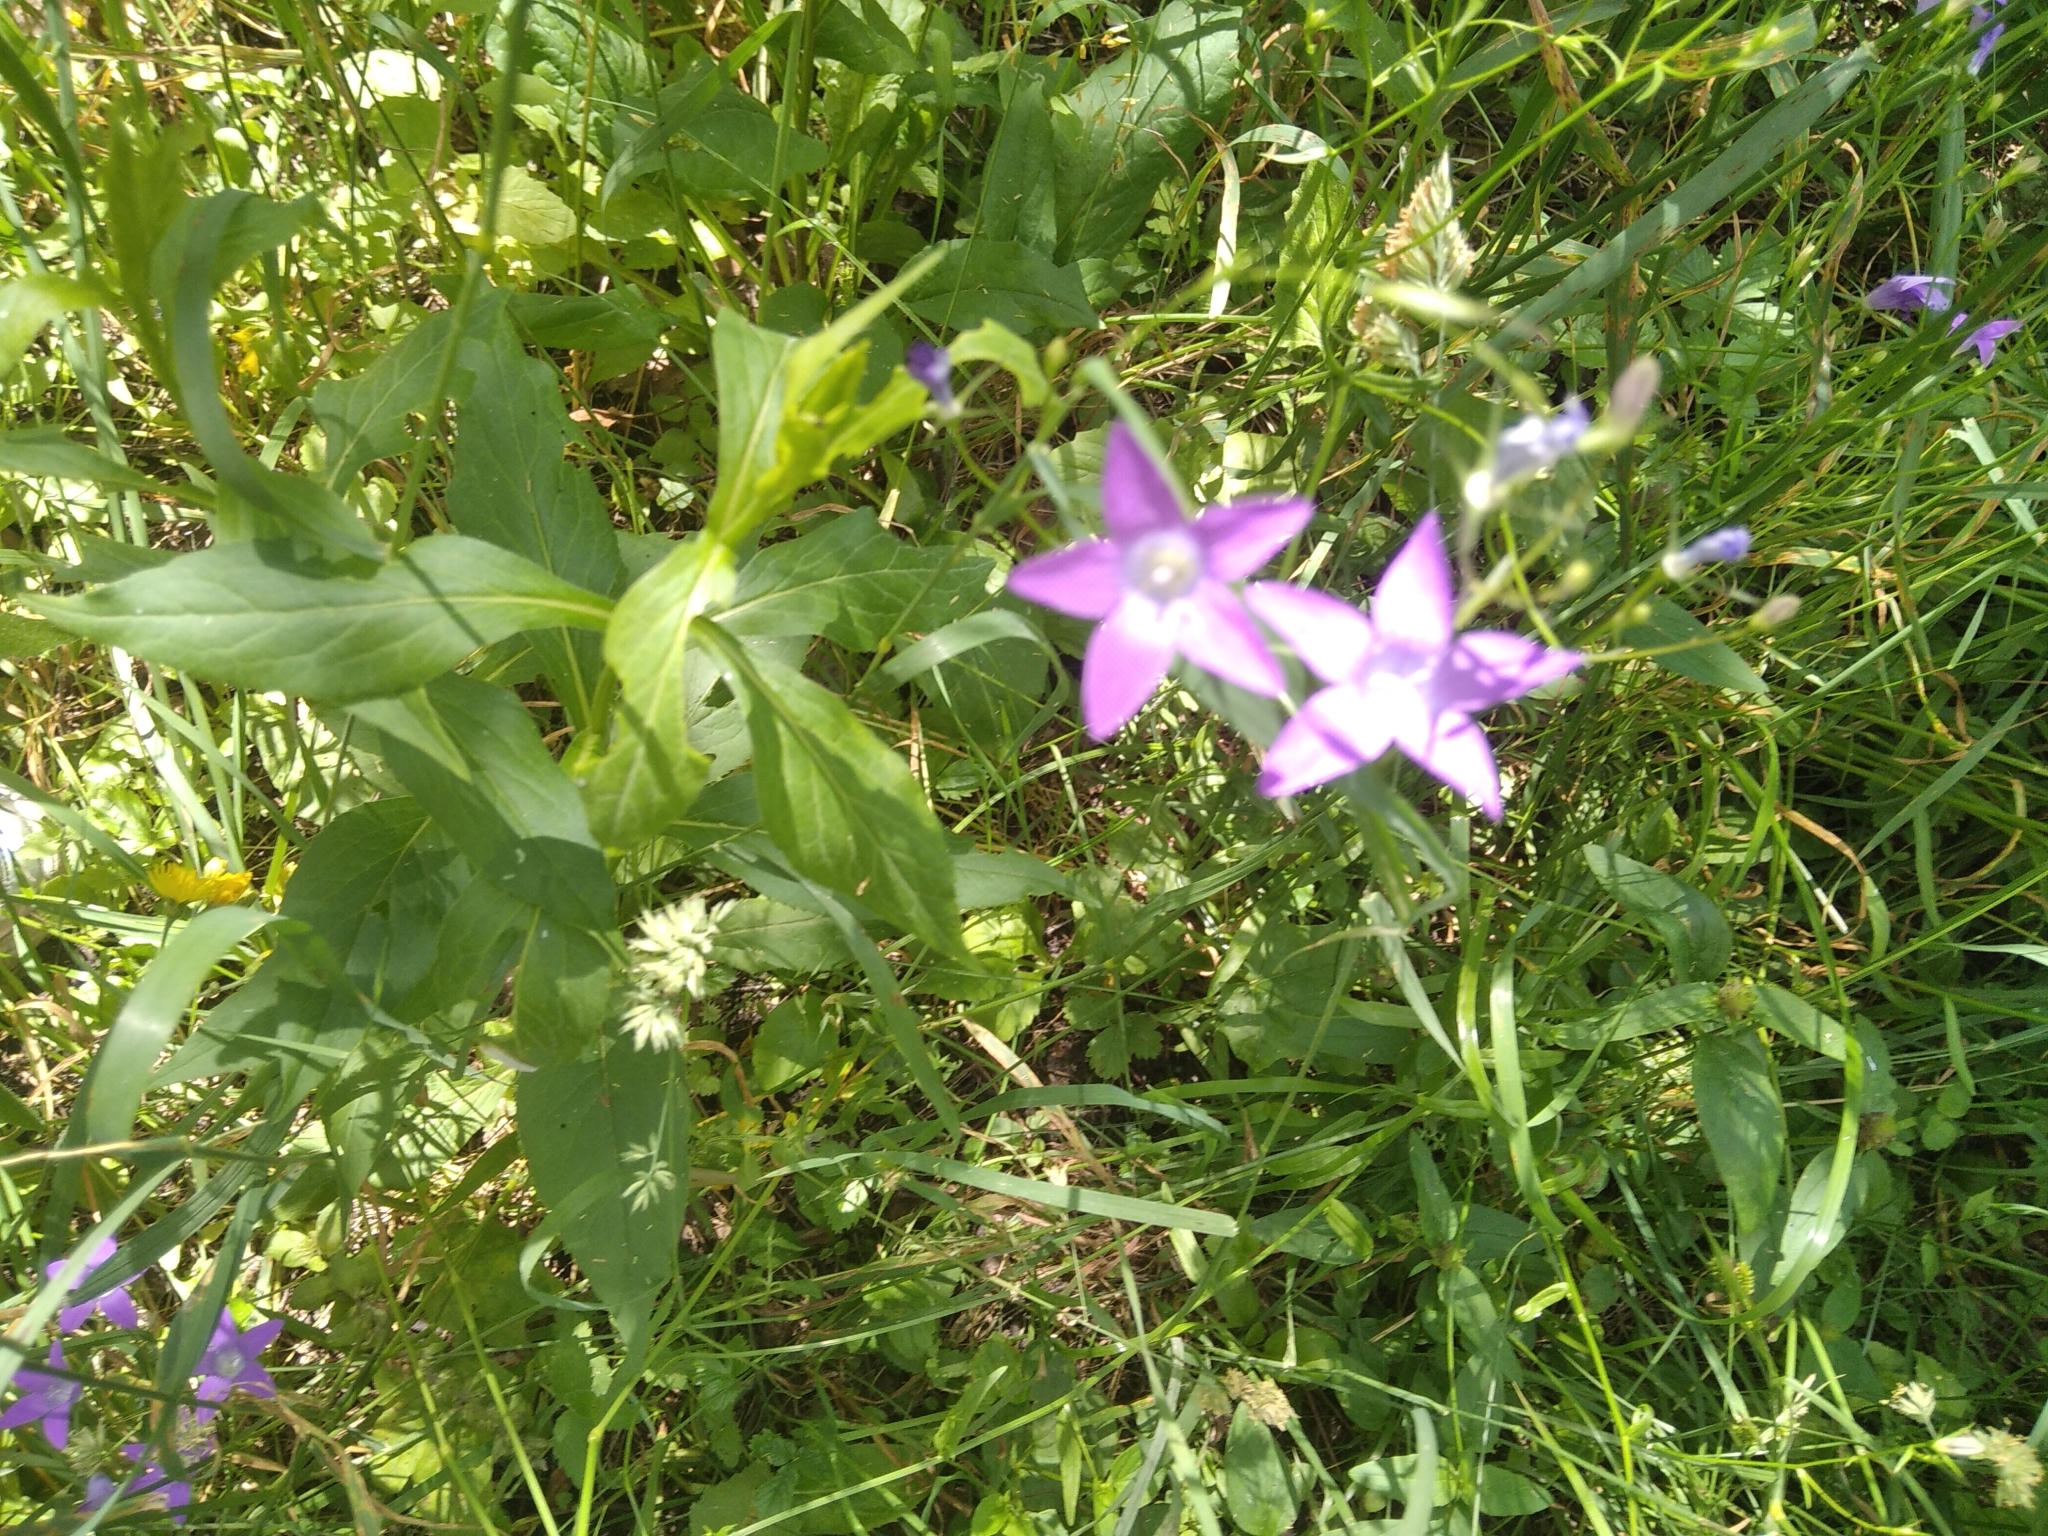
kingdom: Plantae
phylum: Tracheophyta
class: Magnoliopsida
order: Asterales
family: Campanulaceae
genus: Campanula
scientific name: Campanula patula
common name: Spreading bellflower
